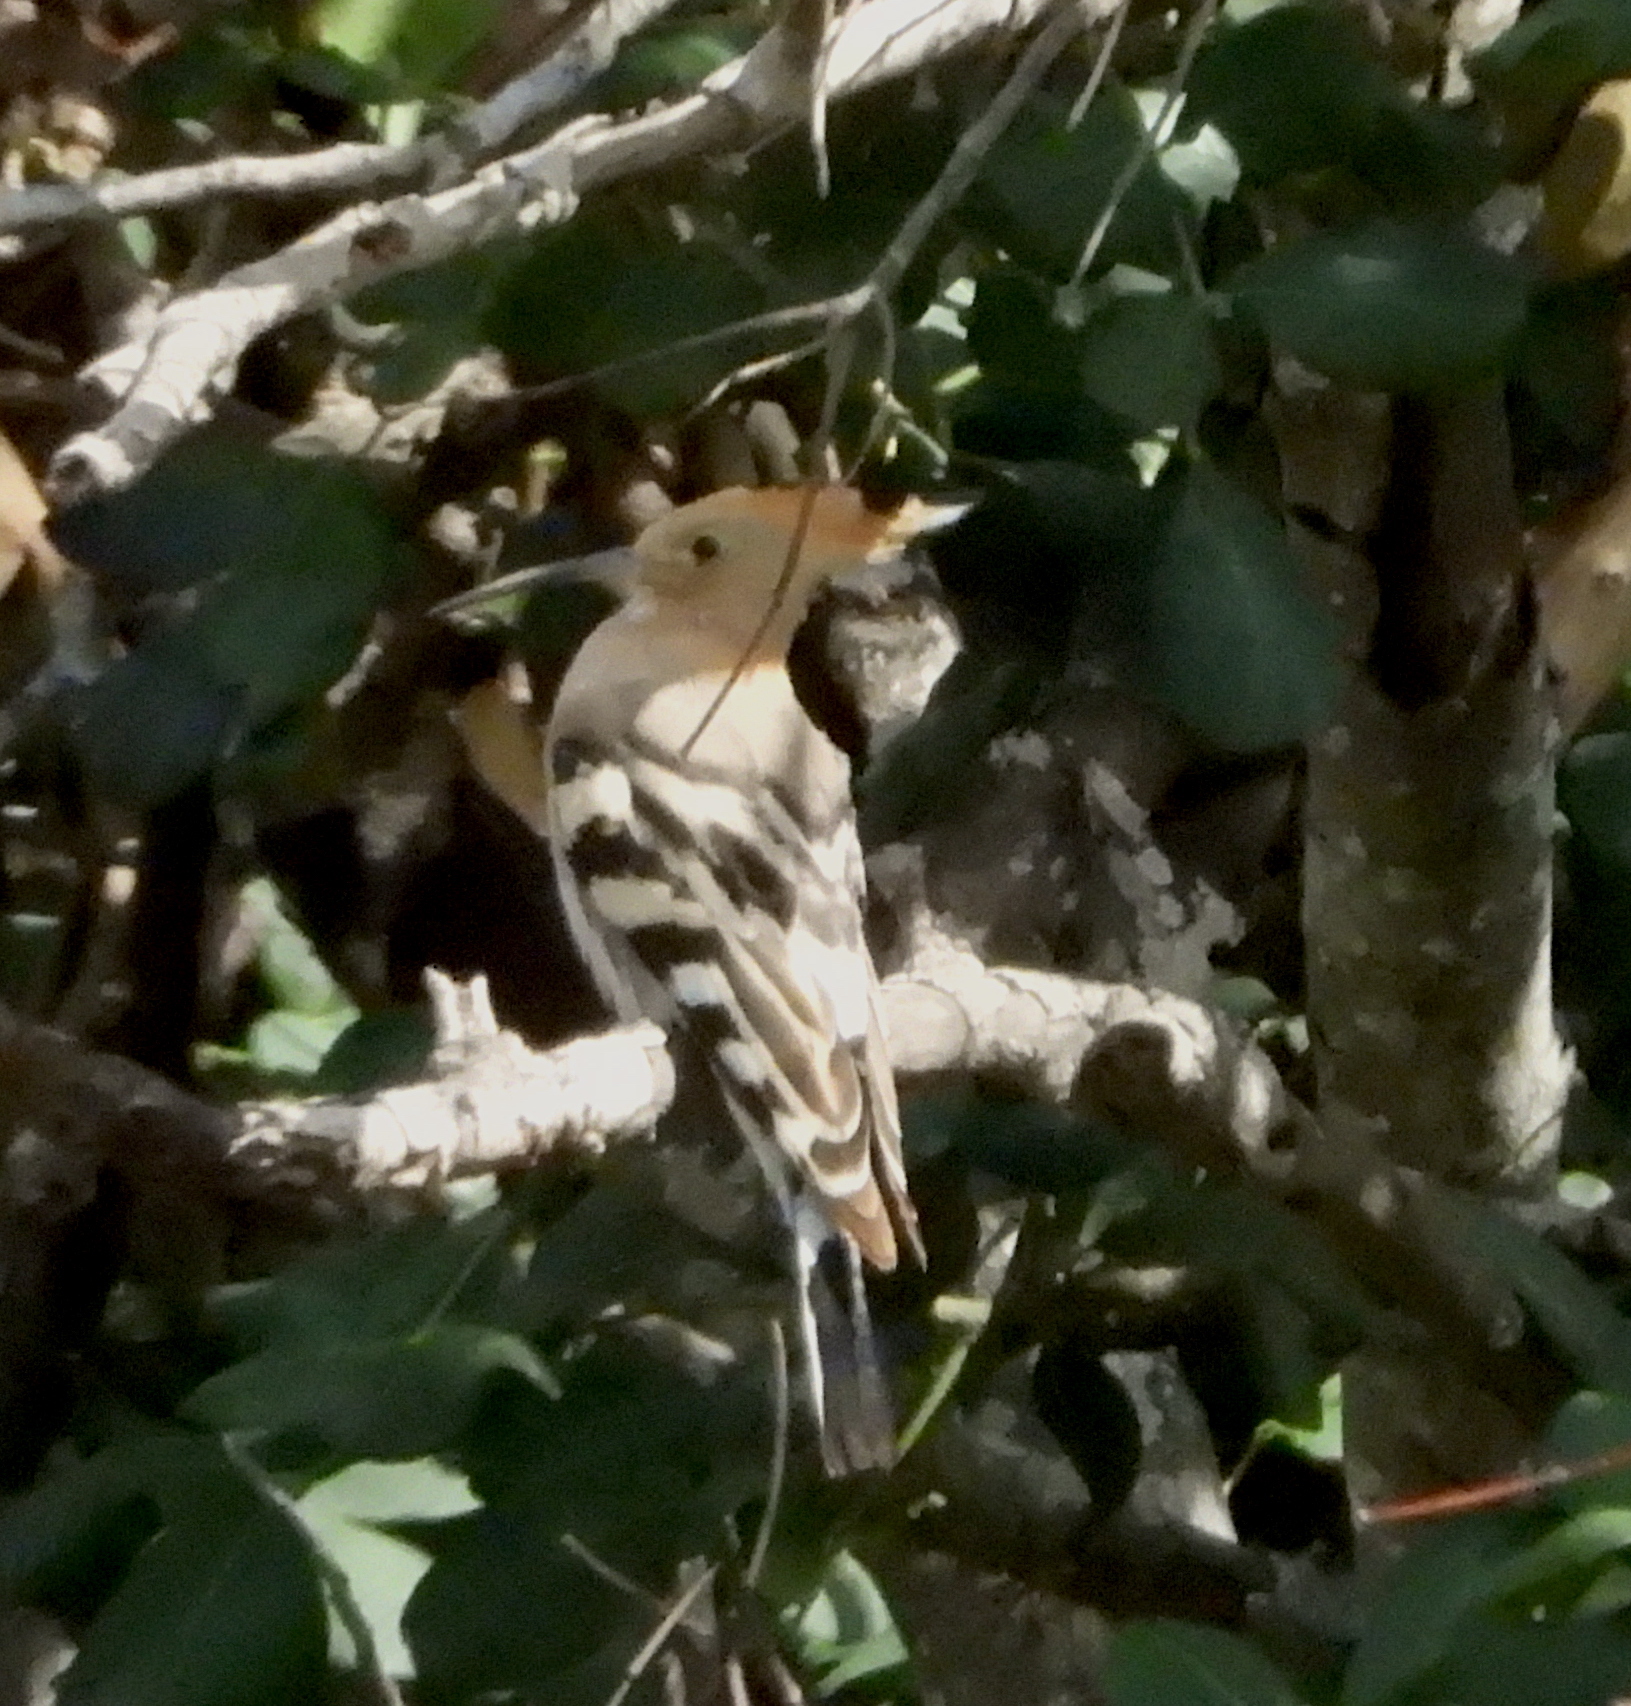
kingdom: Animalia
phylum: Chordata
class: Aves
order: Bucerotiformes
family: Upupidae
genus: Upupa
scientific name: Upupa epops
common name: Eurasian hoopoe
